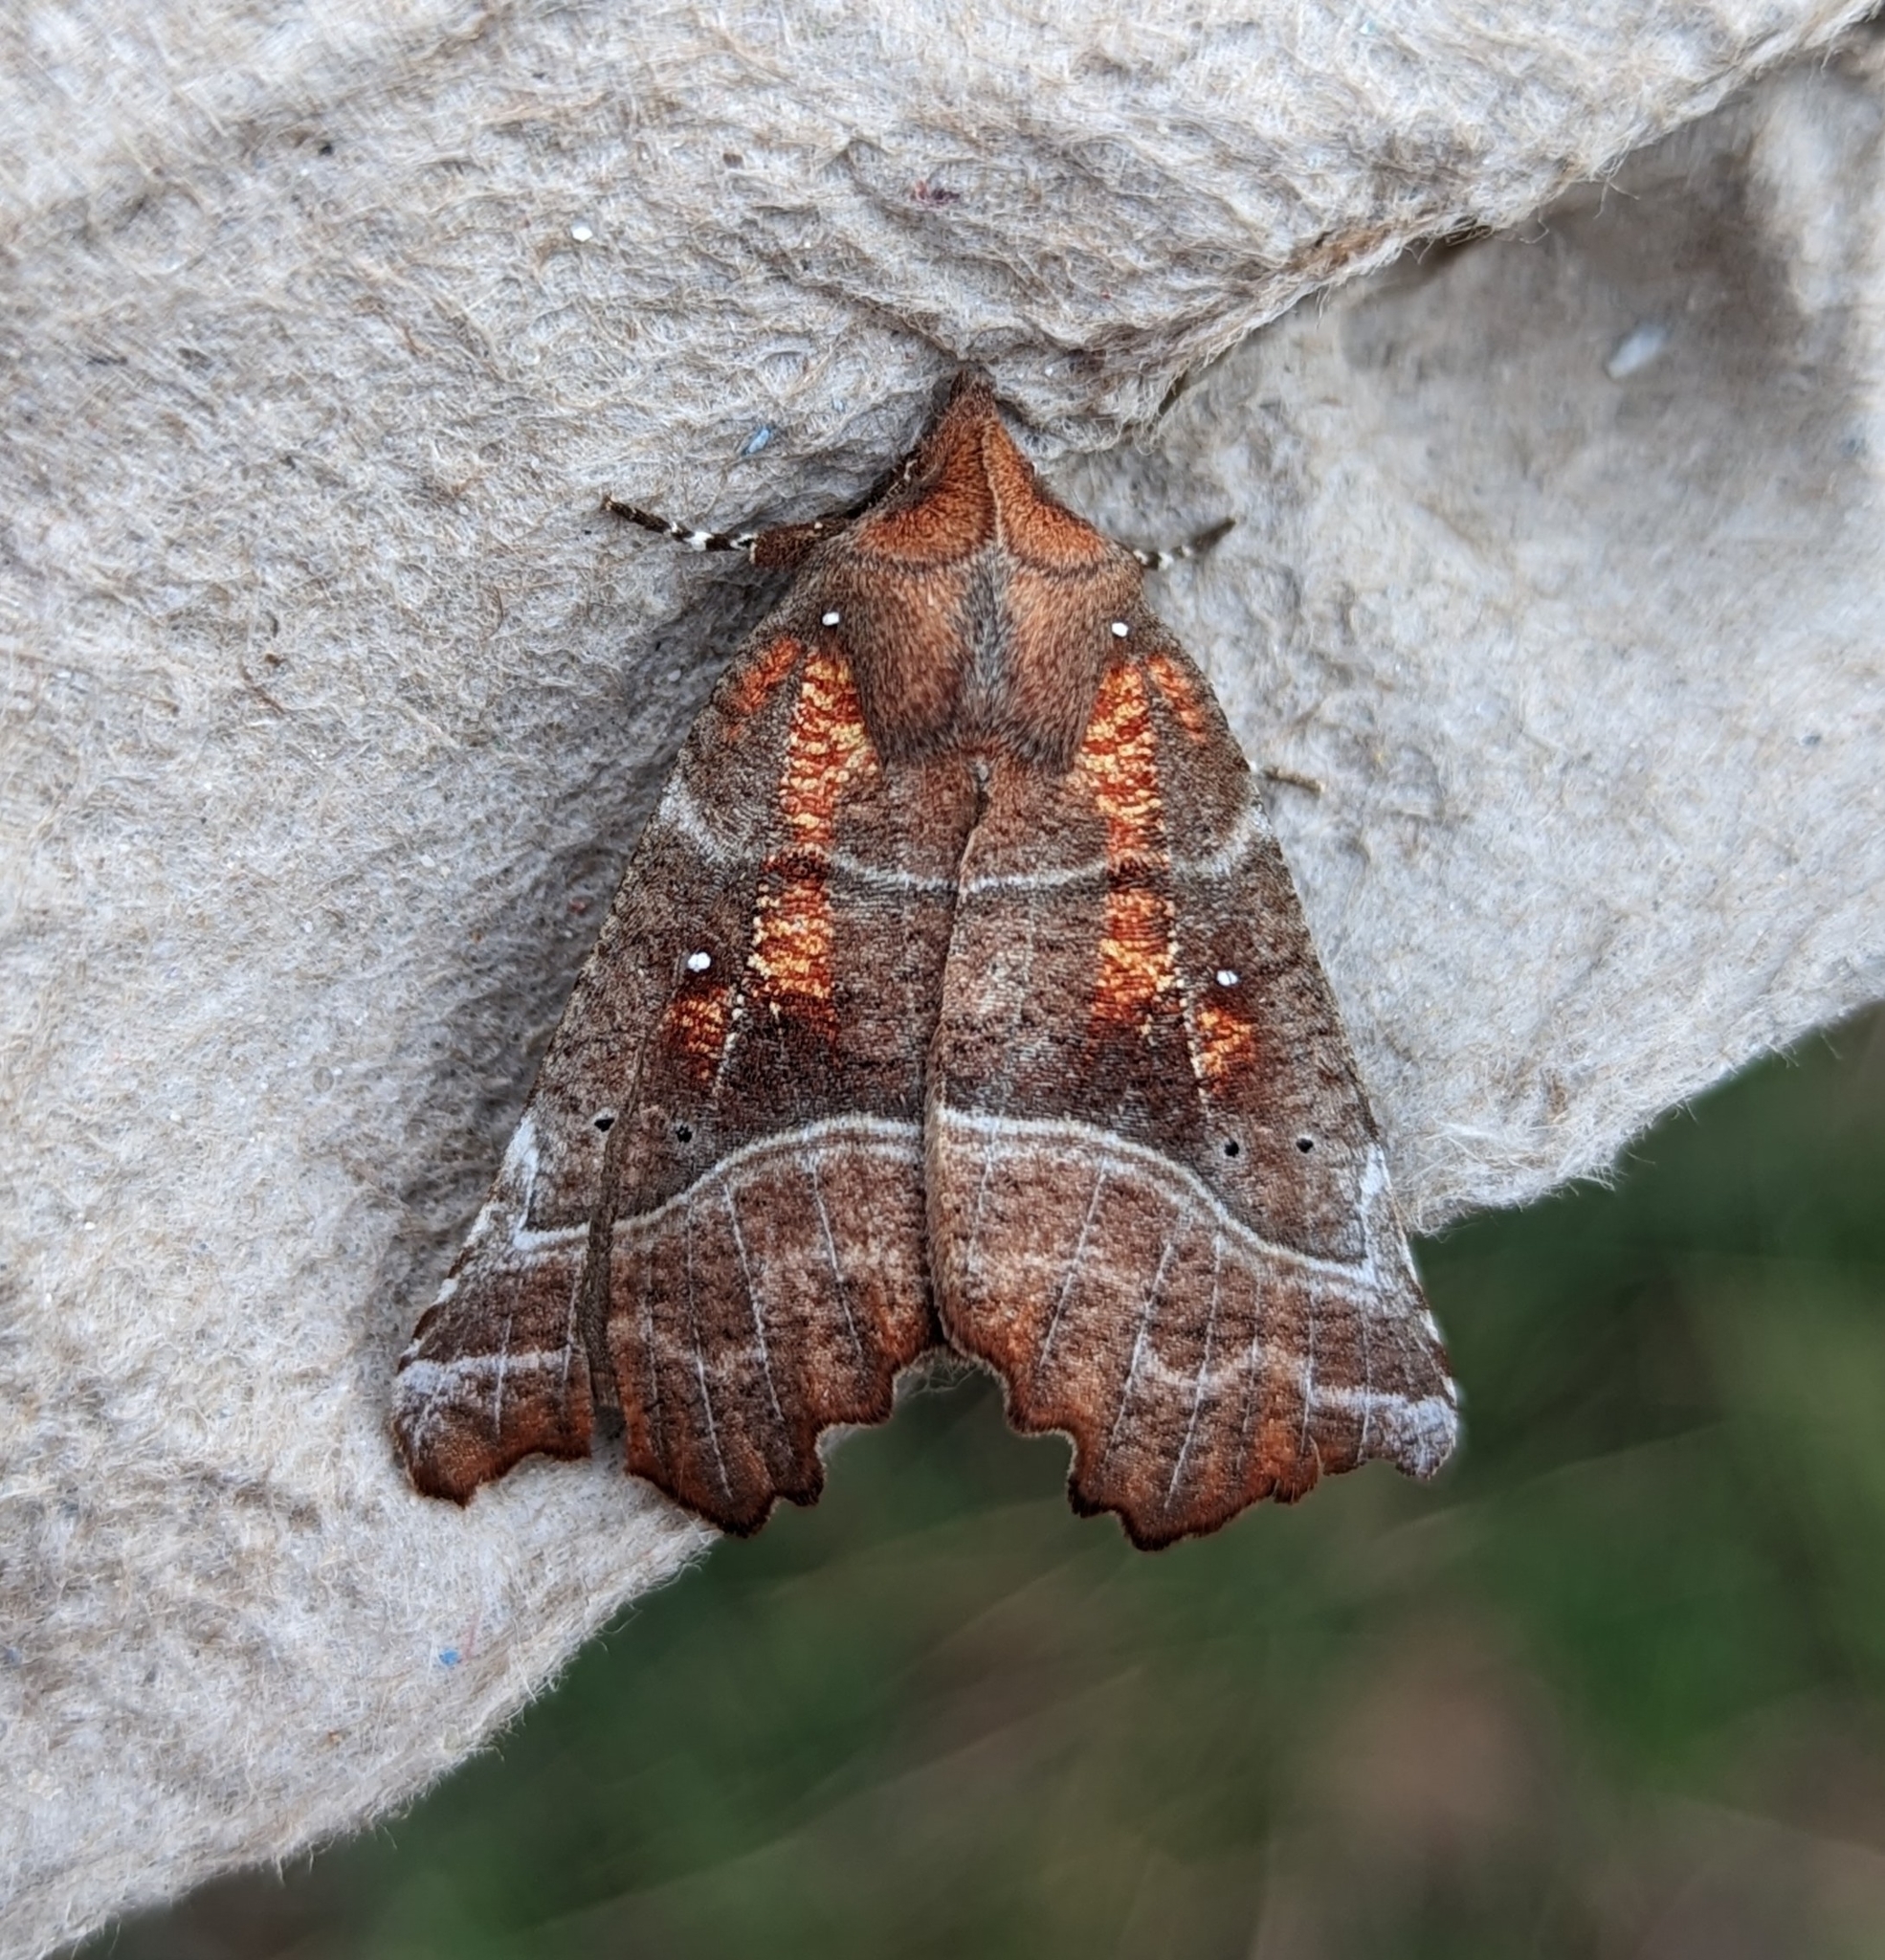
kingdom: Animalia
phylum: Arthropoda
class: Insecta
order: Lepidoptera
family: Erebidae
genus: Scoliopteryx
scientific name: Scoliopteryx libatrix
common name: Herald
